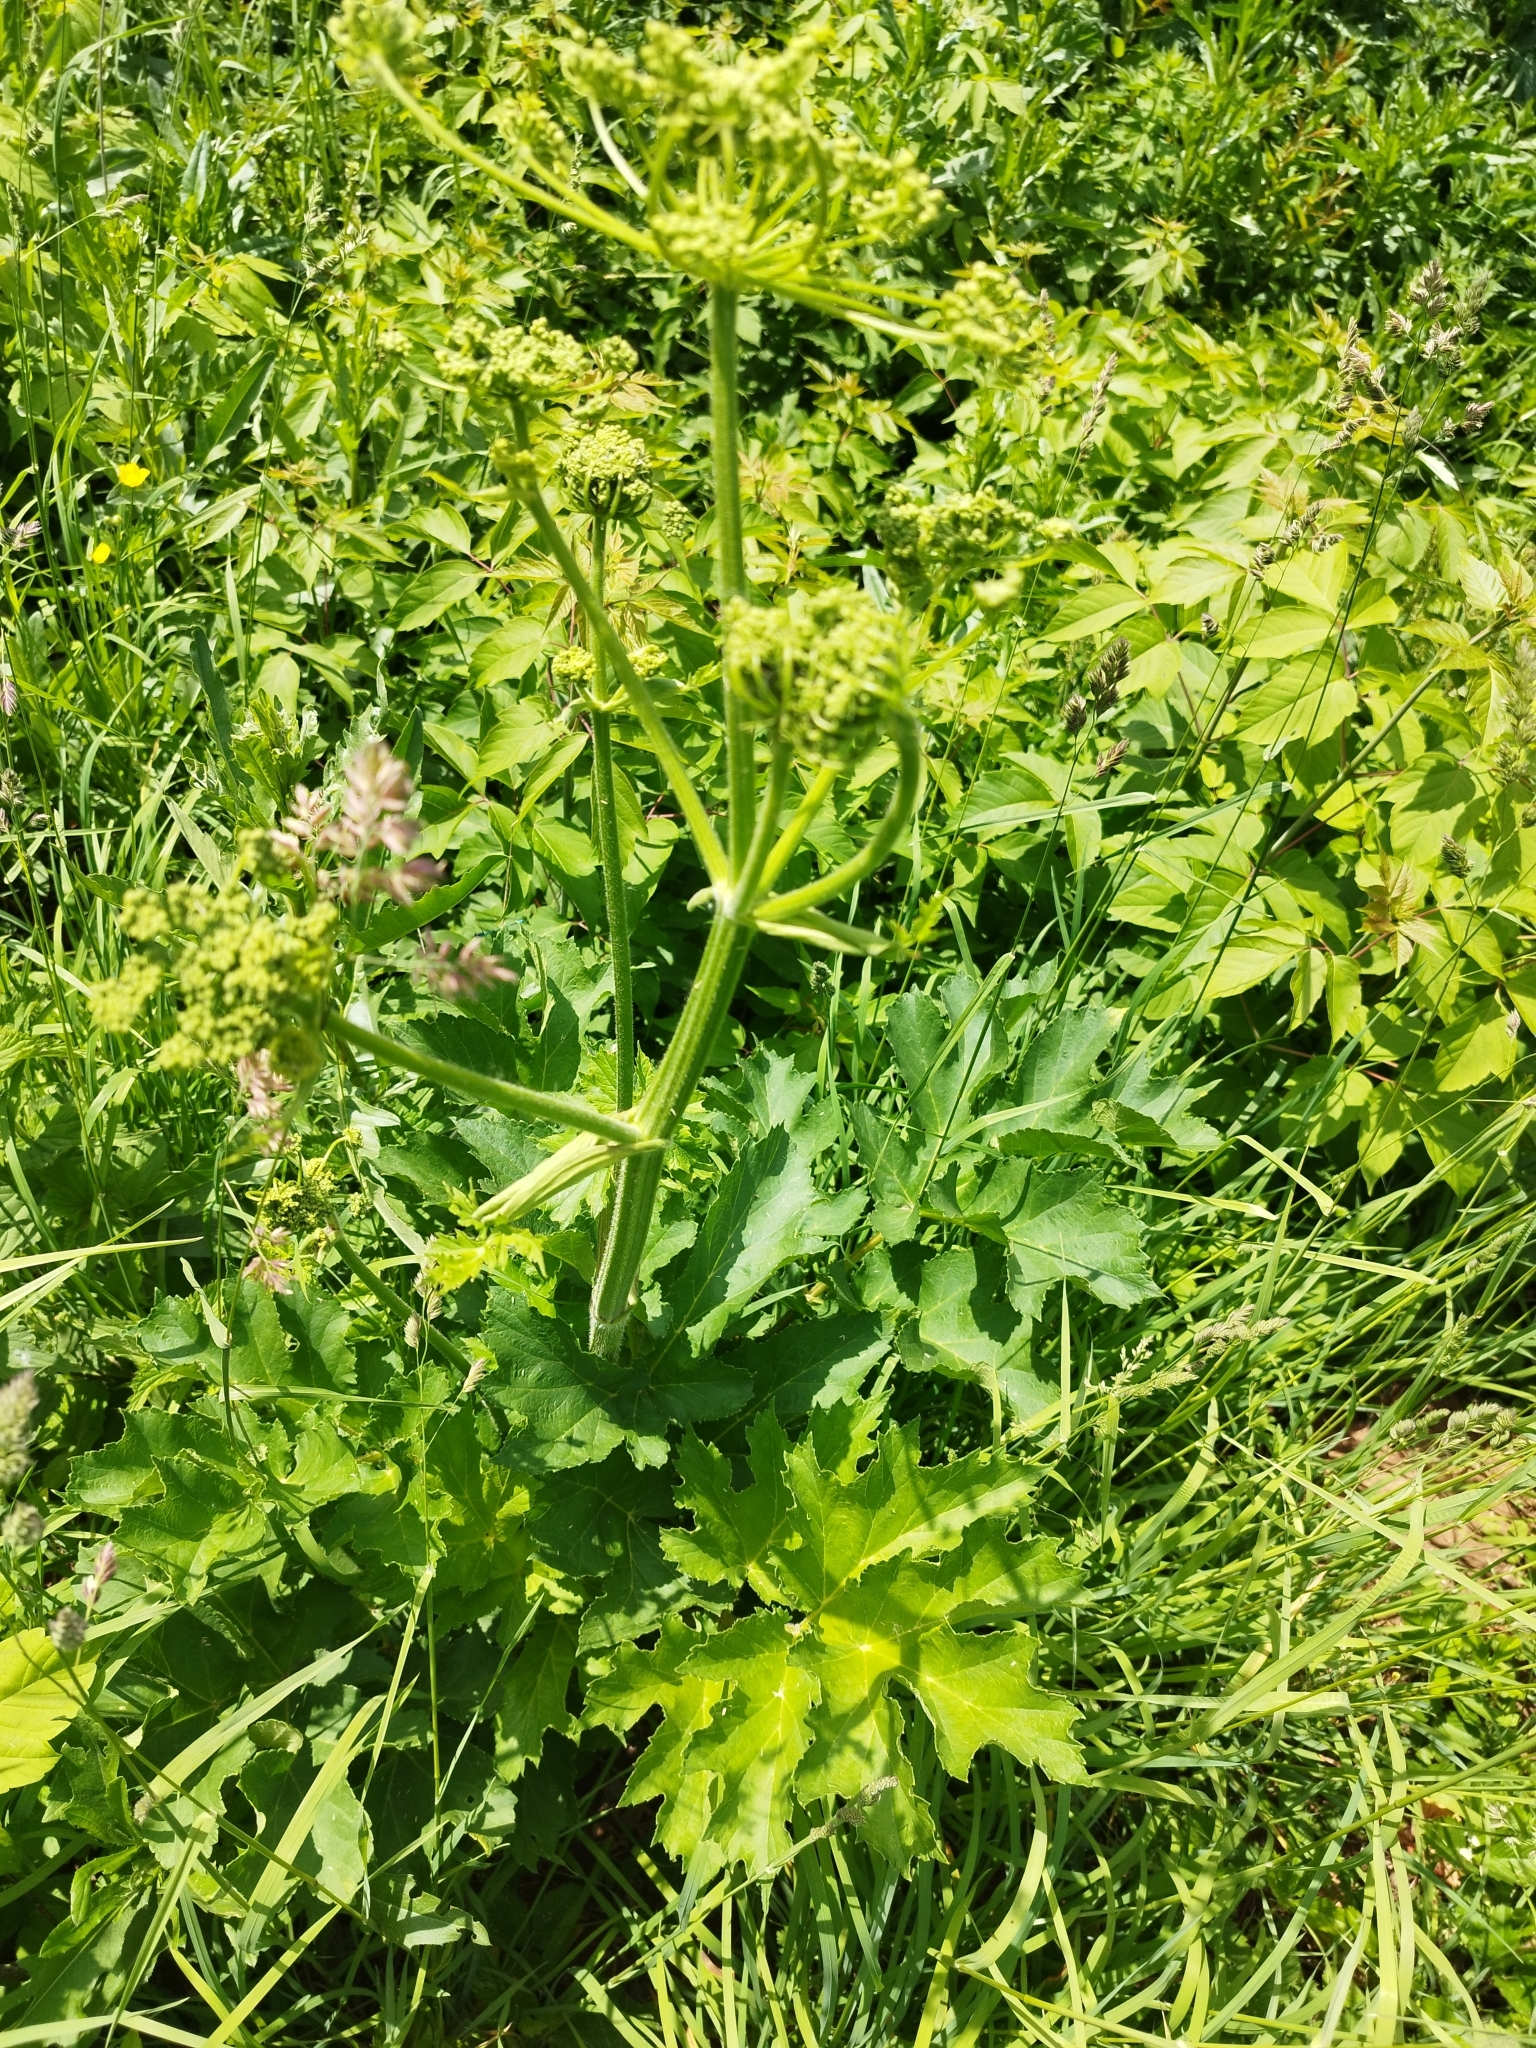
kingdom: Plantae
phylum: Tracheophyta
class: Magnoliopsida
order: Apiales
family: Apiaceae
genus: Heracleum
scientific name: Heracleum sphondylium
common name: Hogweed
